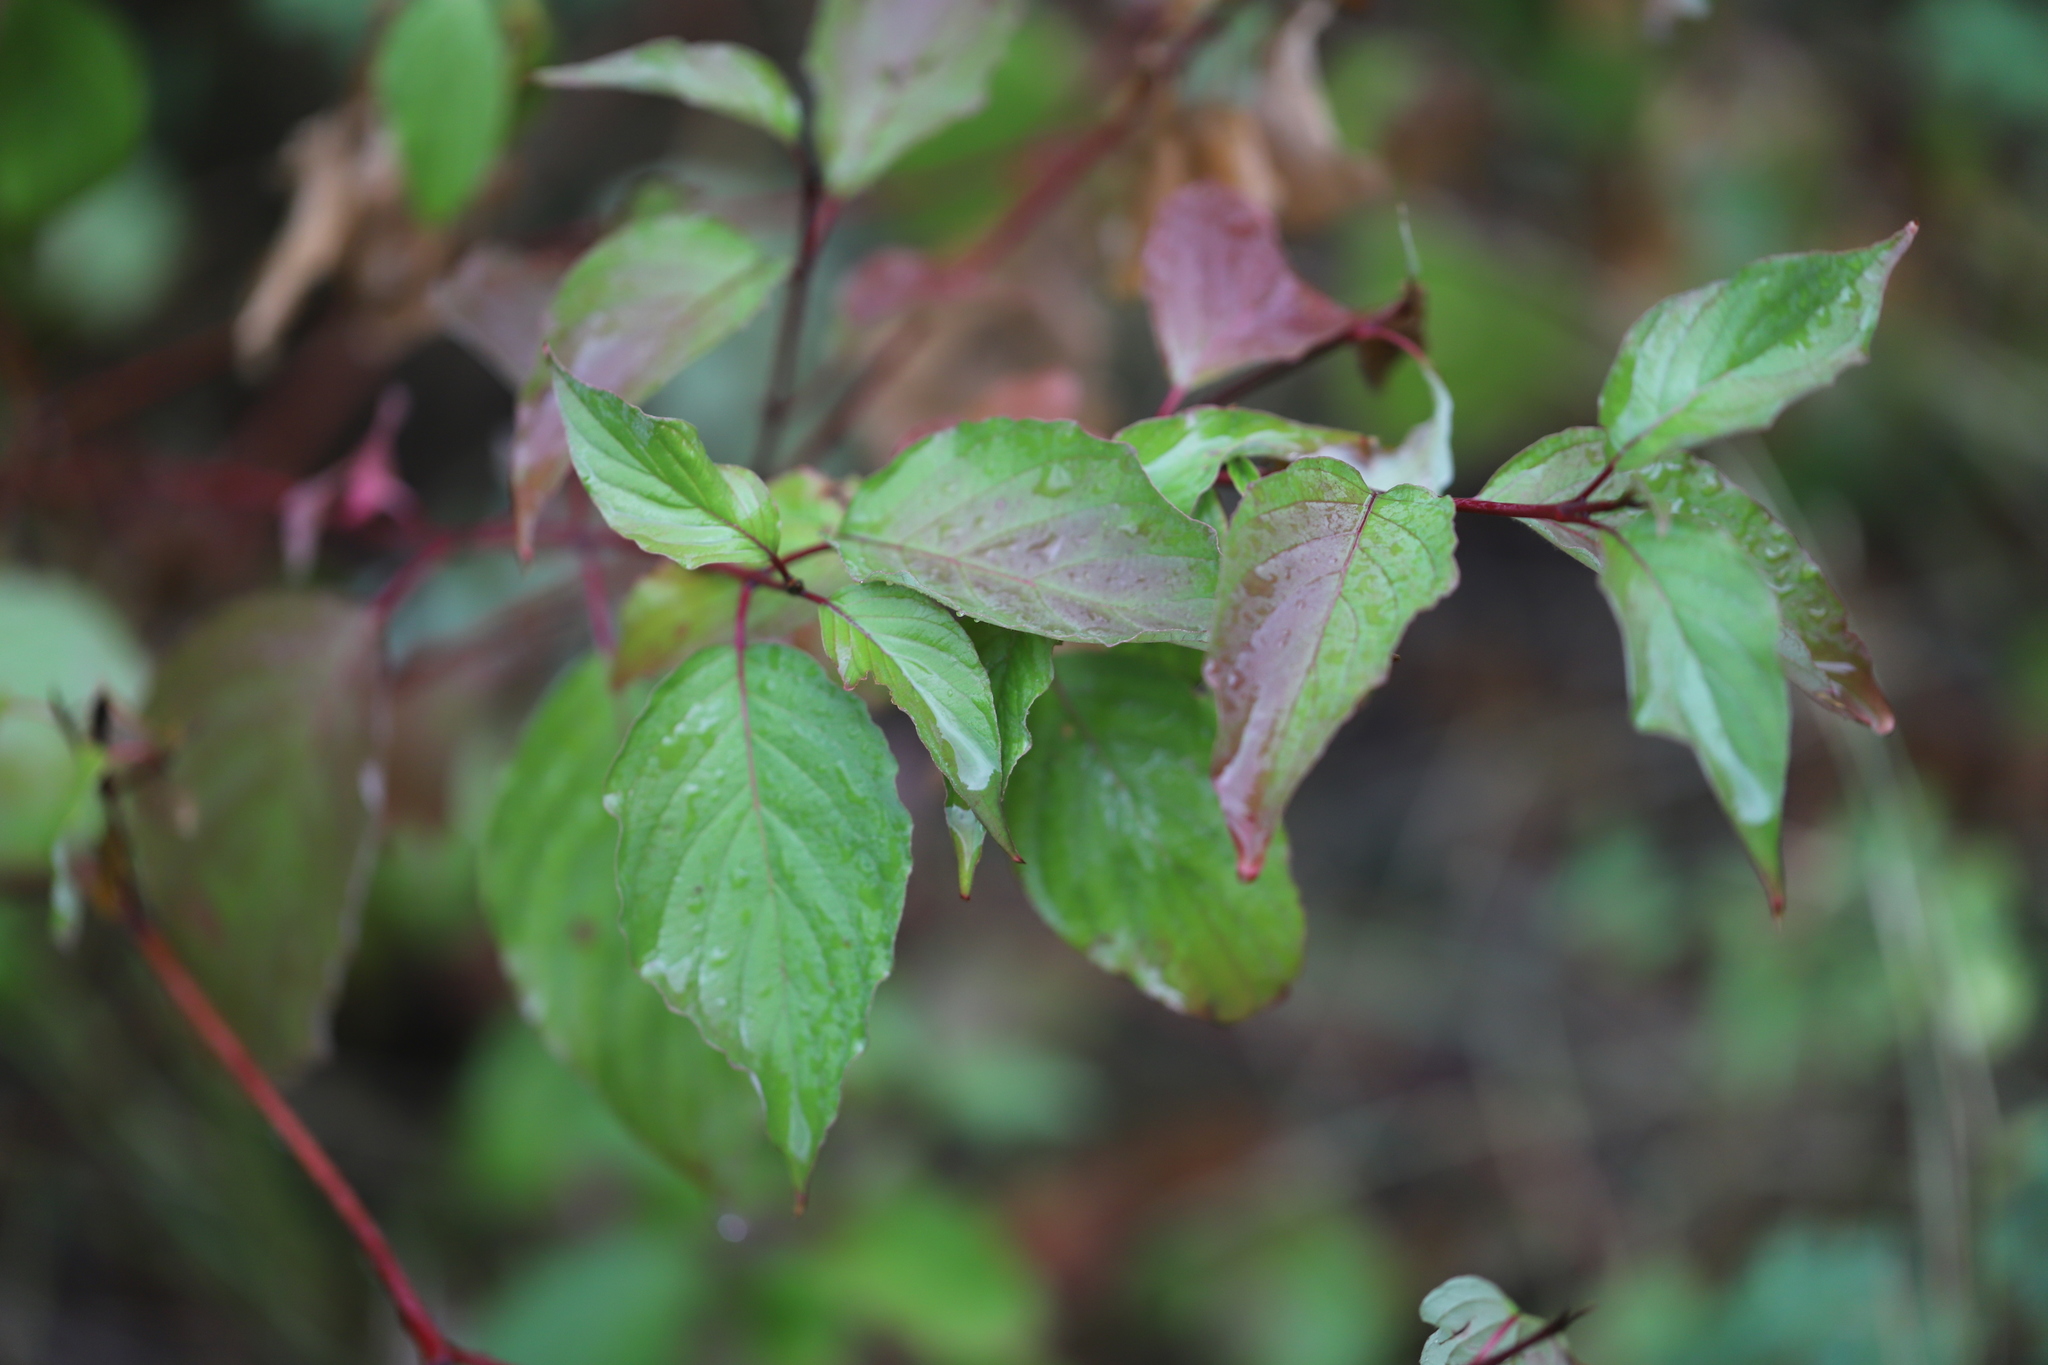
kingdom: Plantae
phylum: Tracheophyta
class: Magnoliopsida
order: Cornales
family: Cornaceae
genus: Cornus
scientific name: Cornus sericea
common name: Red-osier dogwood
